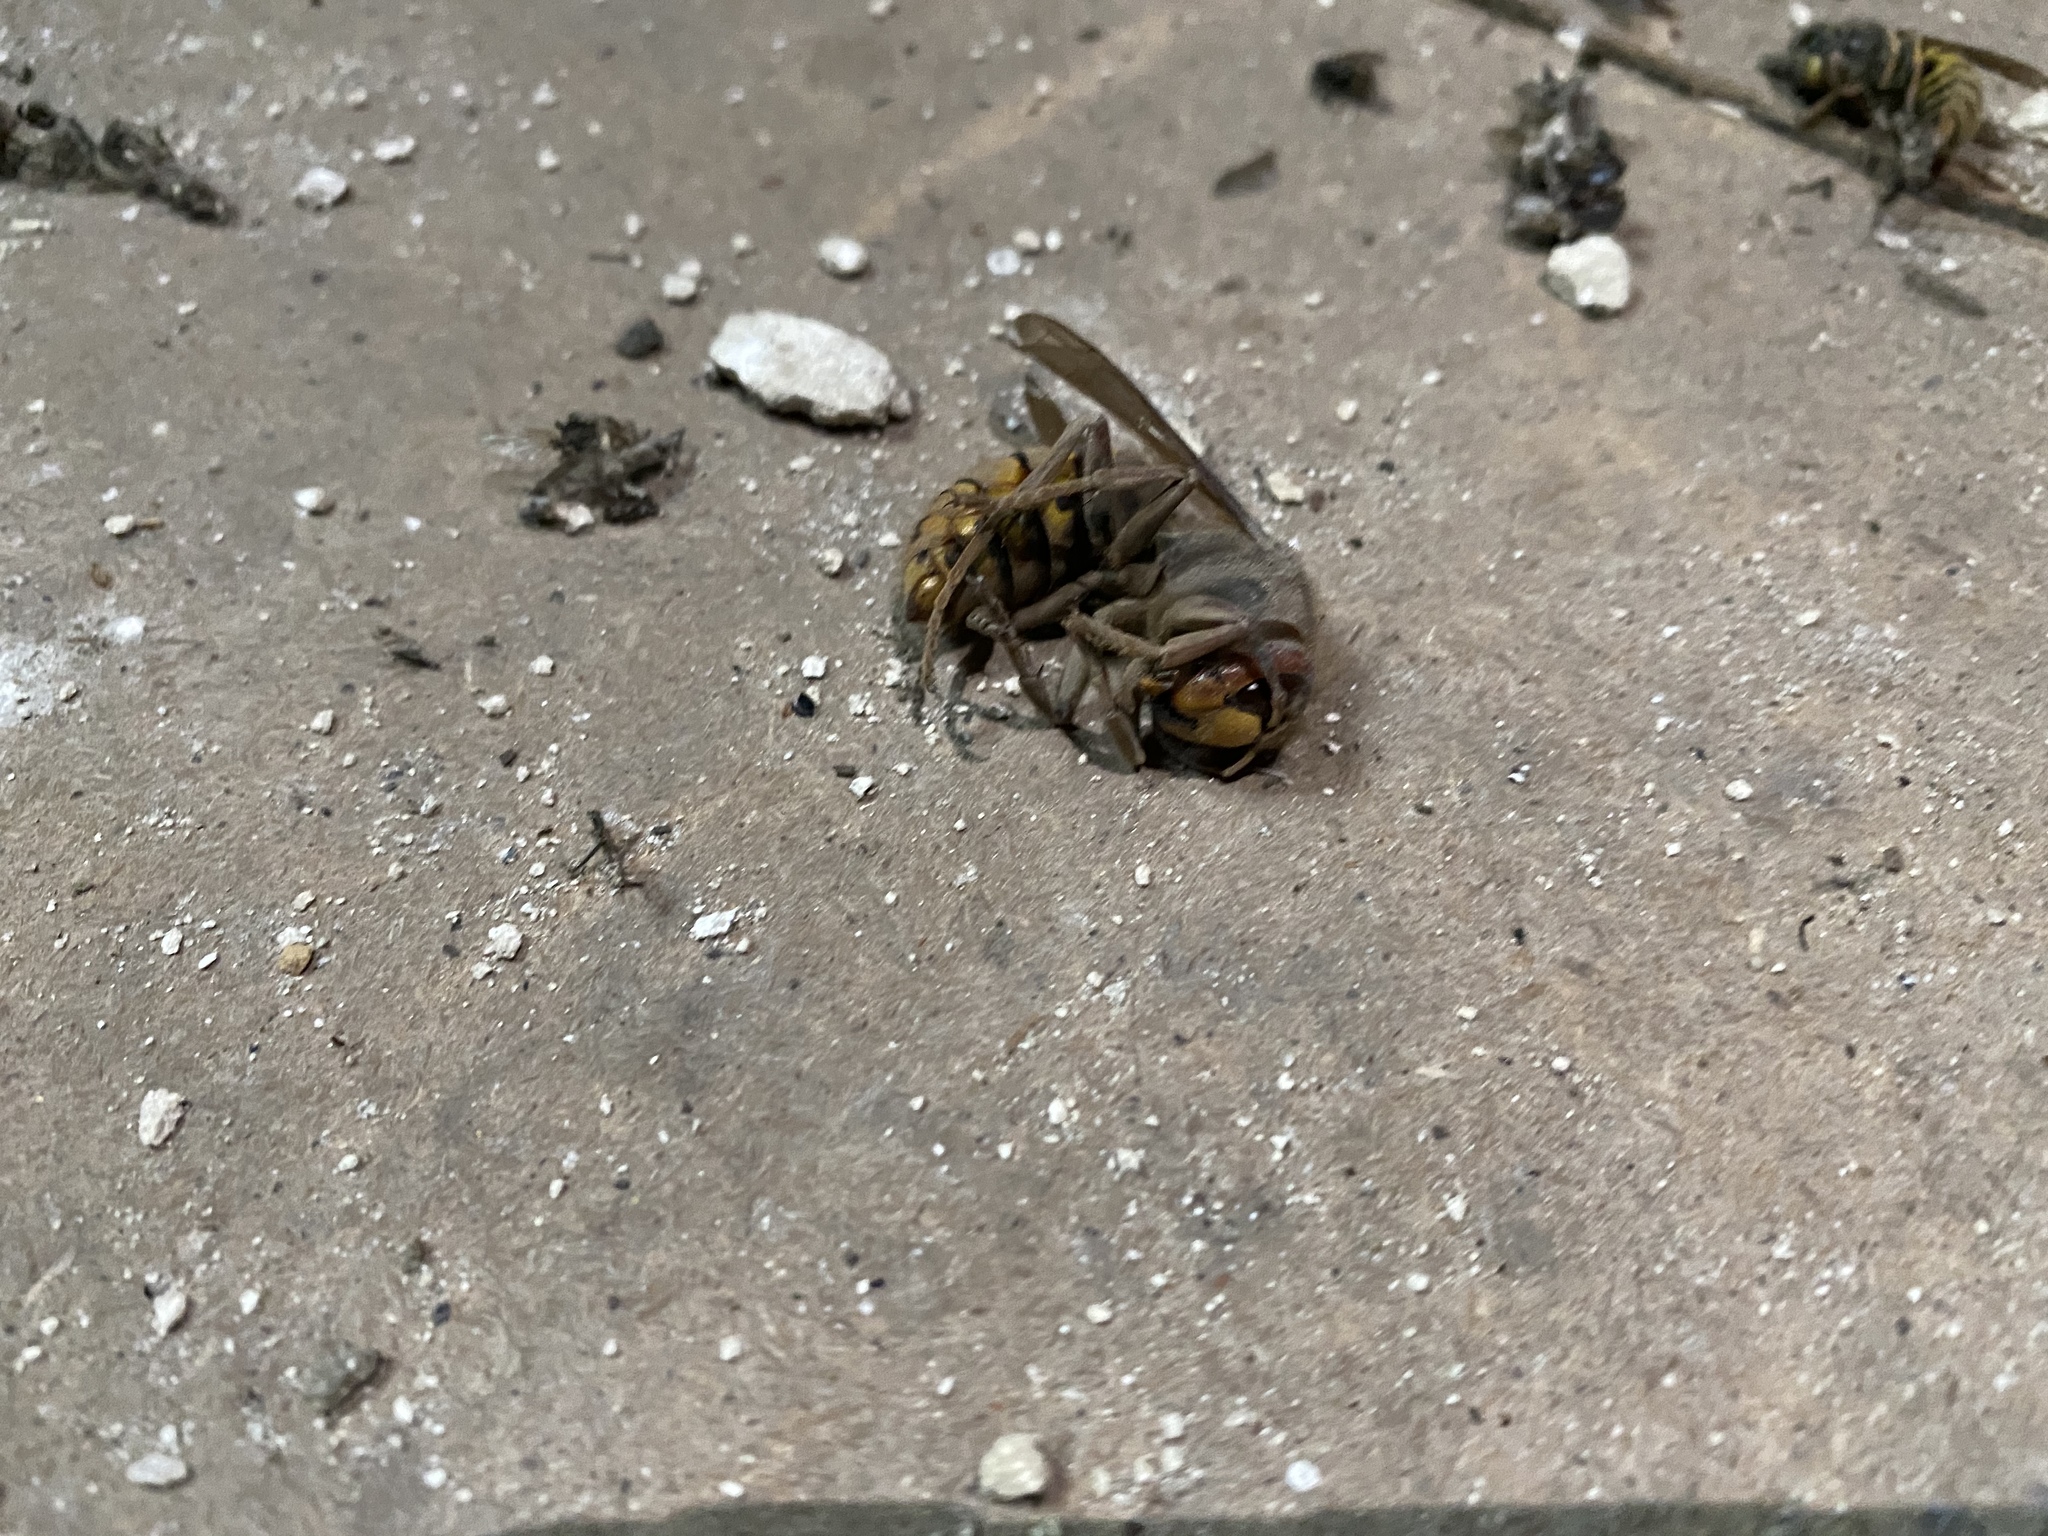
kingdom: Animalia
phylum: Arthropoda
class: Insecta
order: Hymenoptera
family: Vespidae
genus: Vespa
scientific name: Vespa crabro
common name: Hornet
